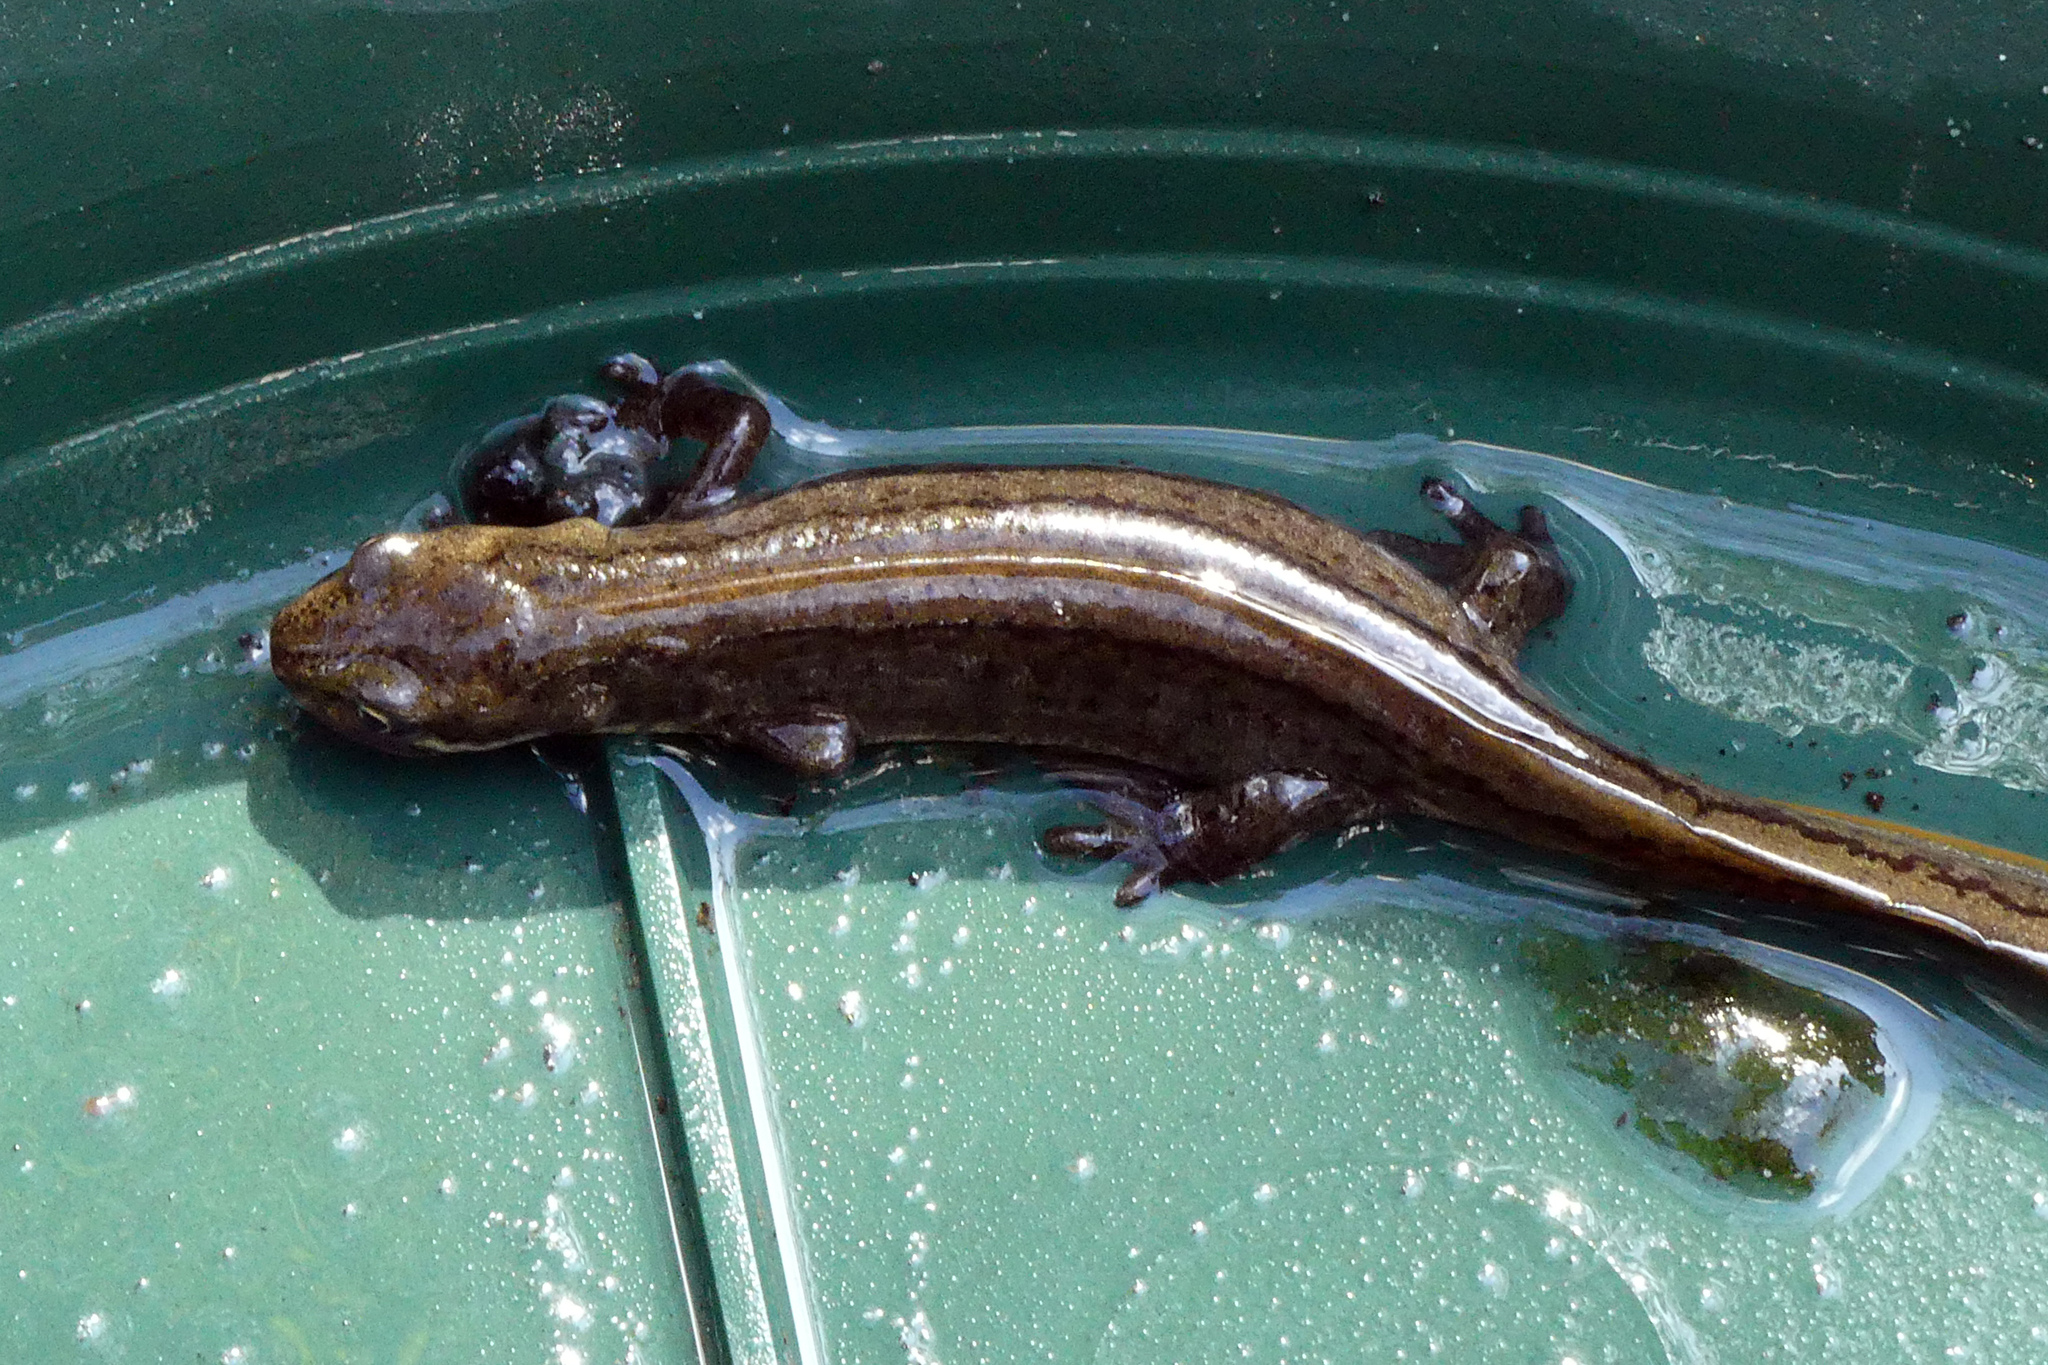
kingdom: Animalia
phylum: Chordata
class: Amphibia
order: Caudata
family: Salamandridae
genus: Lissotriton
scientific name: Lissotriton vulgaris
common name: Smooth newt
